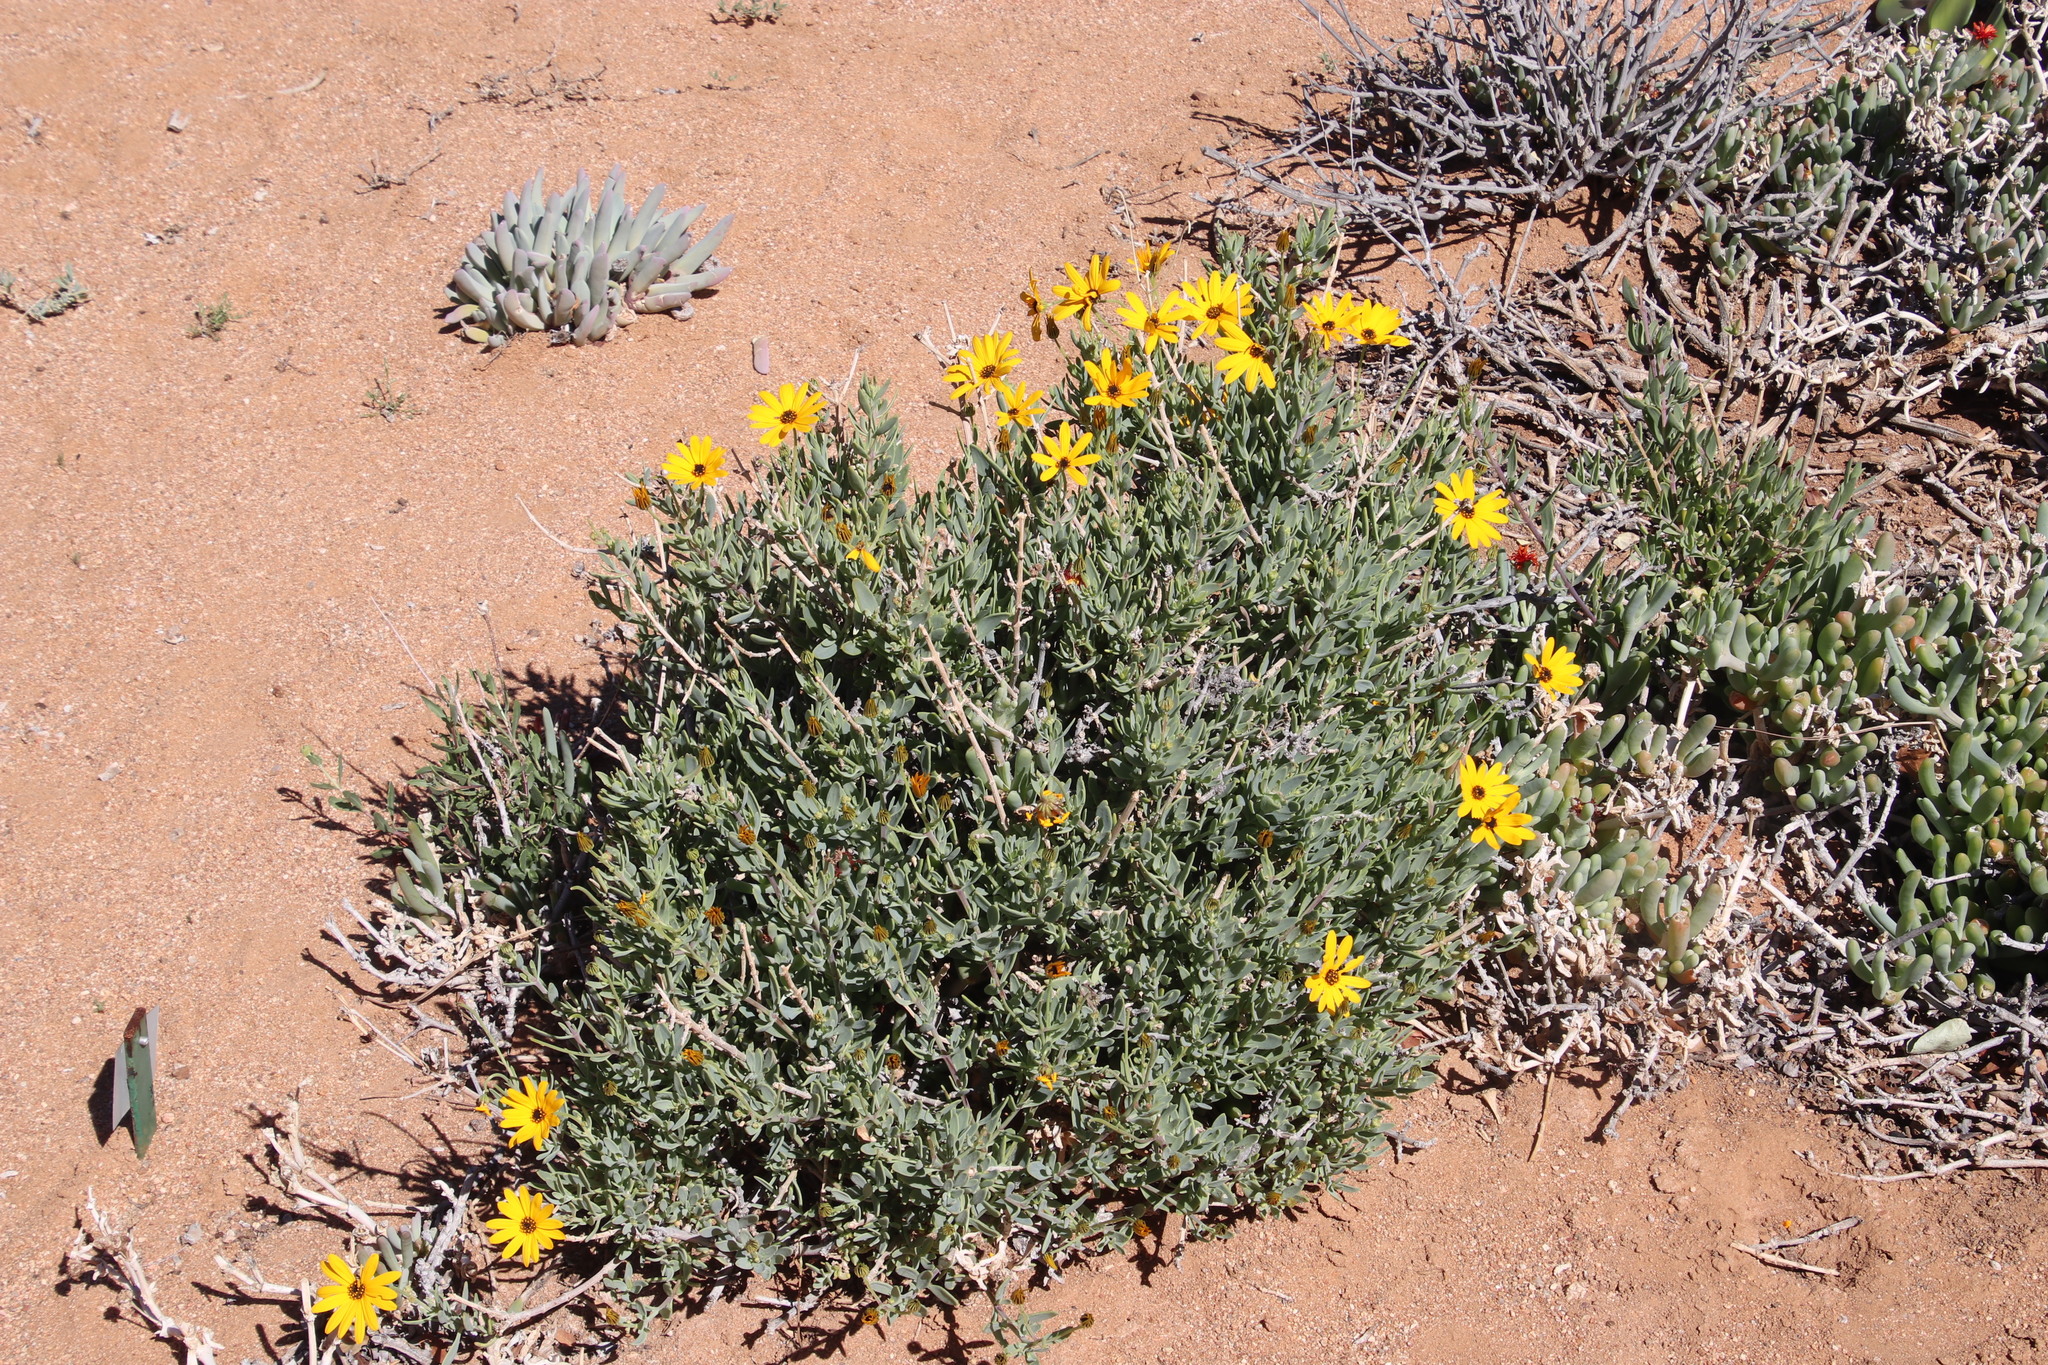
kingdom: Plantae
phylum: Tracheophyta
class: Magnoliopsida
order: Asterales
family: Asteraceae
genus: Osteospermum
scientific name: Osteospermum oppositifolium
